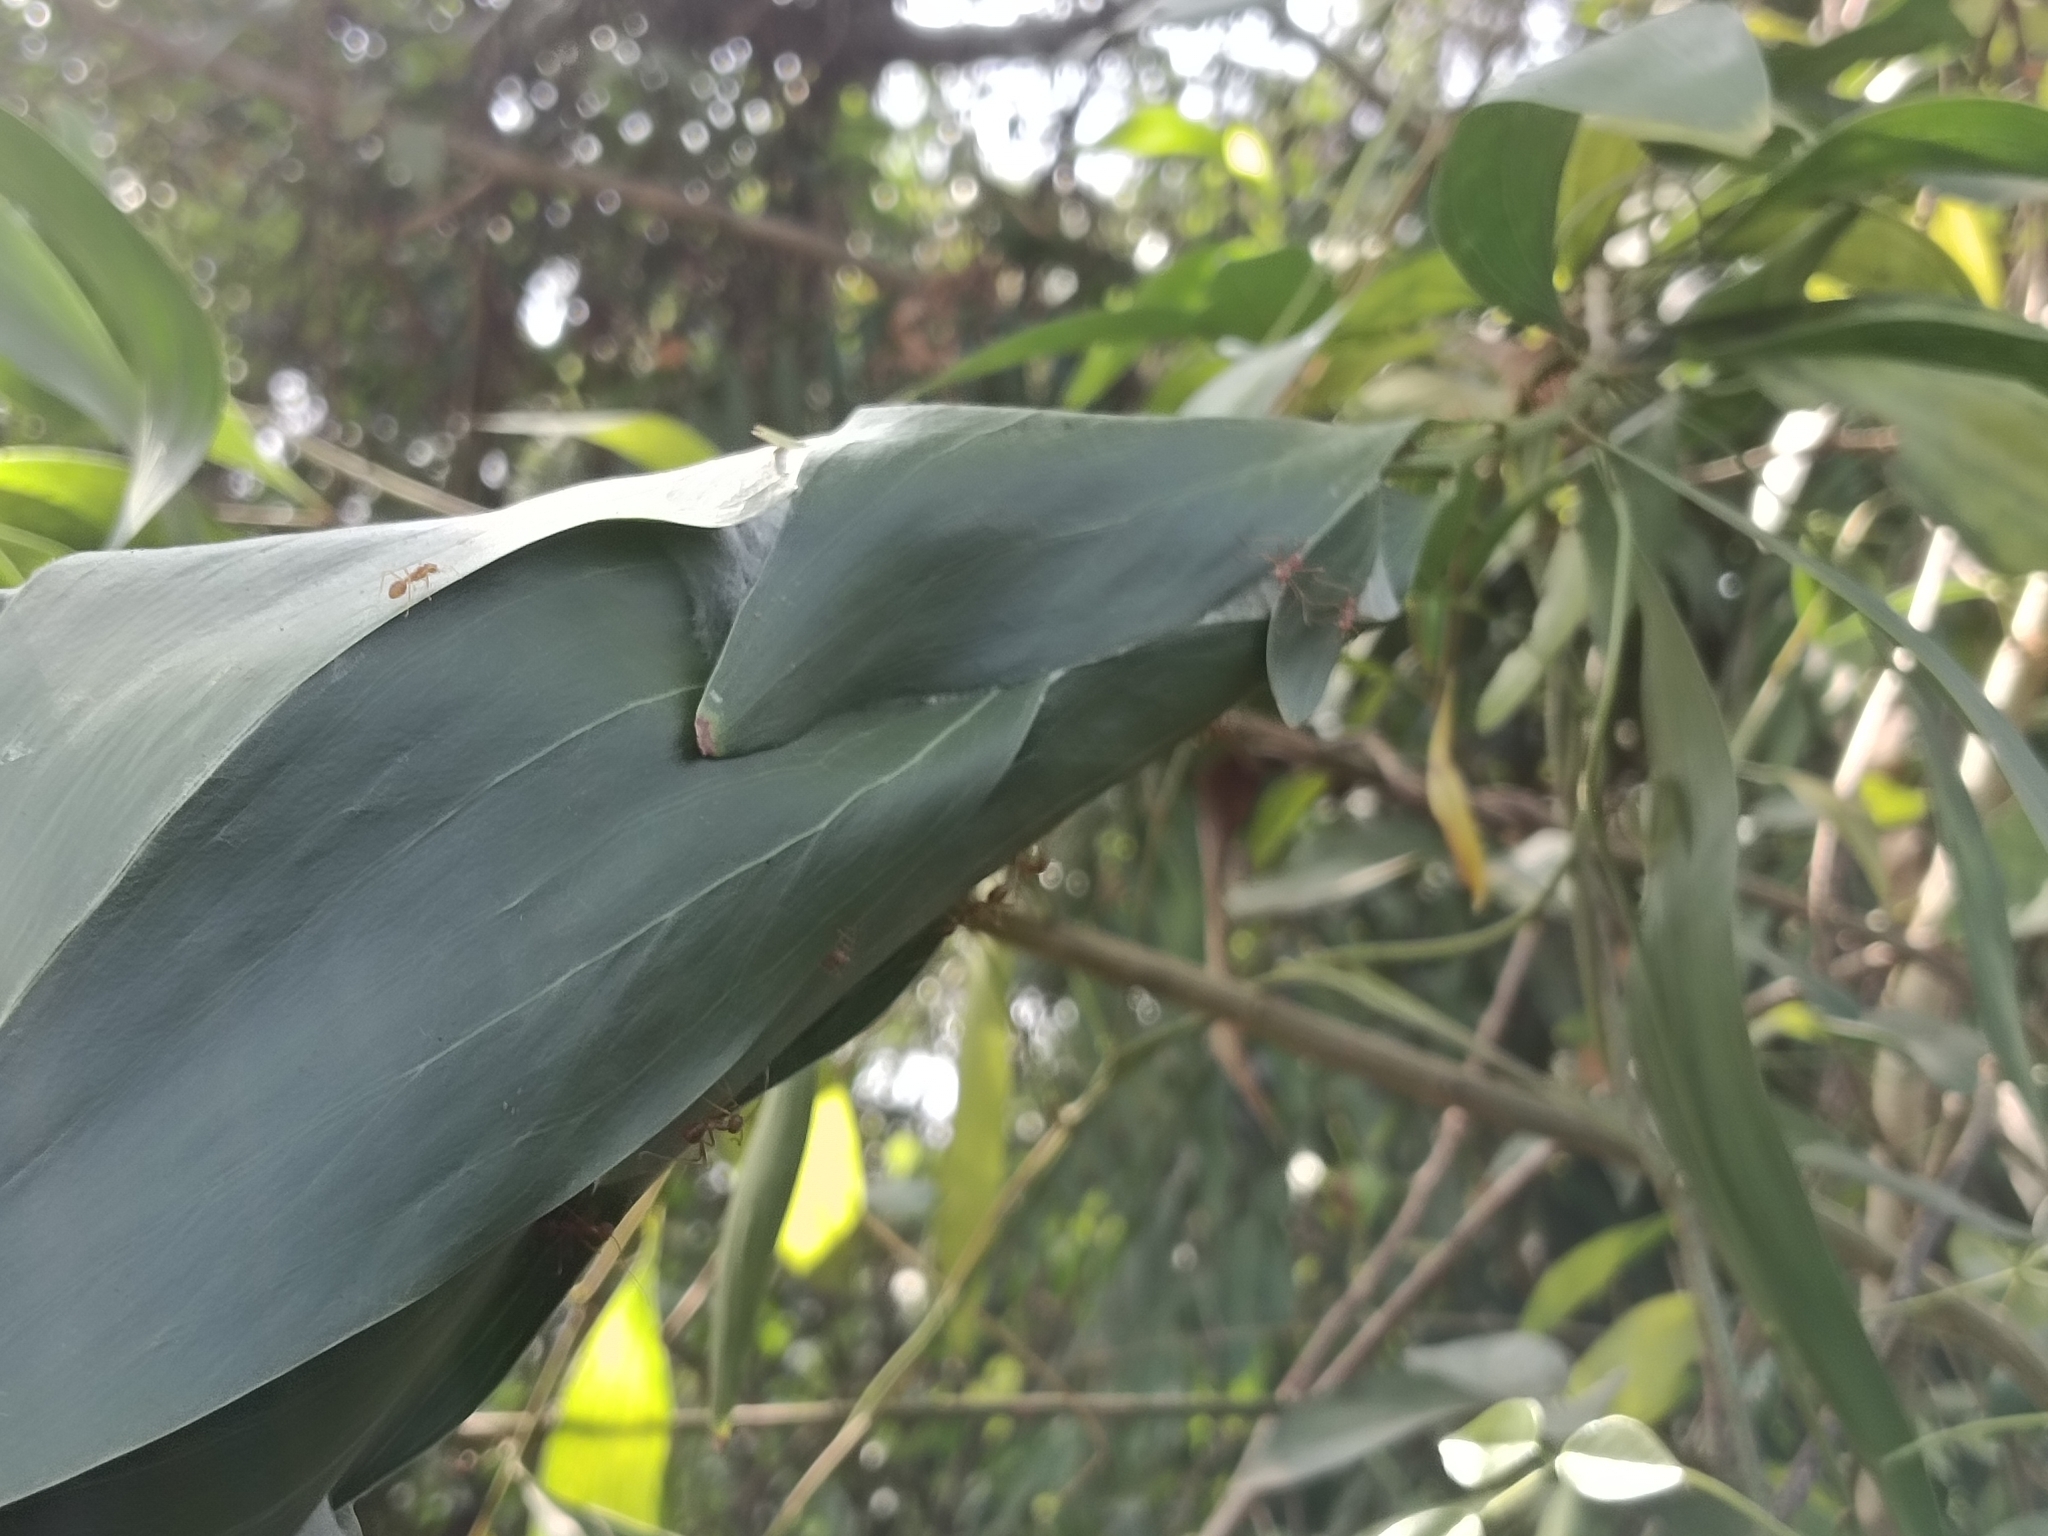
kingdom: Animalia
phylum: Arthropoda
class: Insecta
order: Hymenoptera
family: Formicidae
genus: Oecophylla
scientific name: Oecophylla smaragdina
